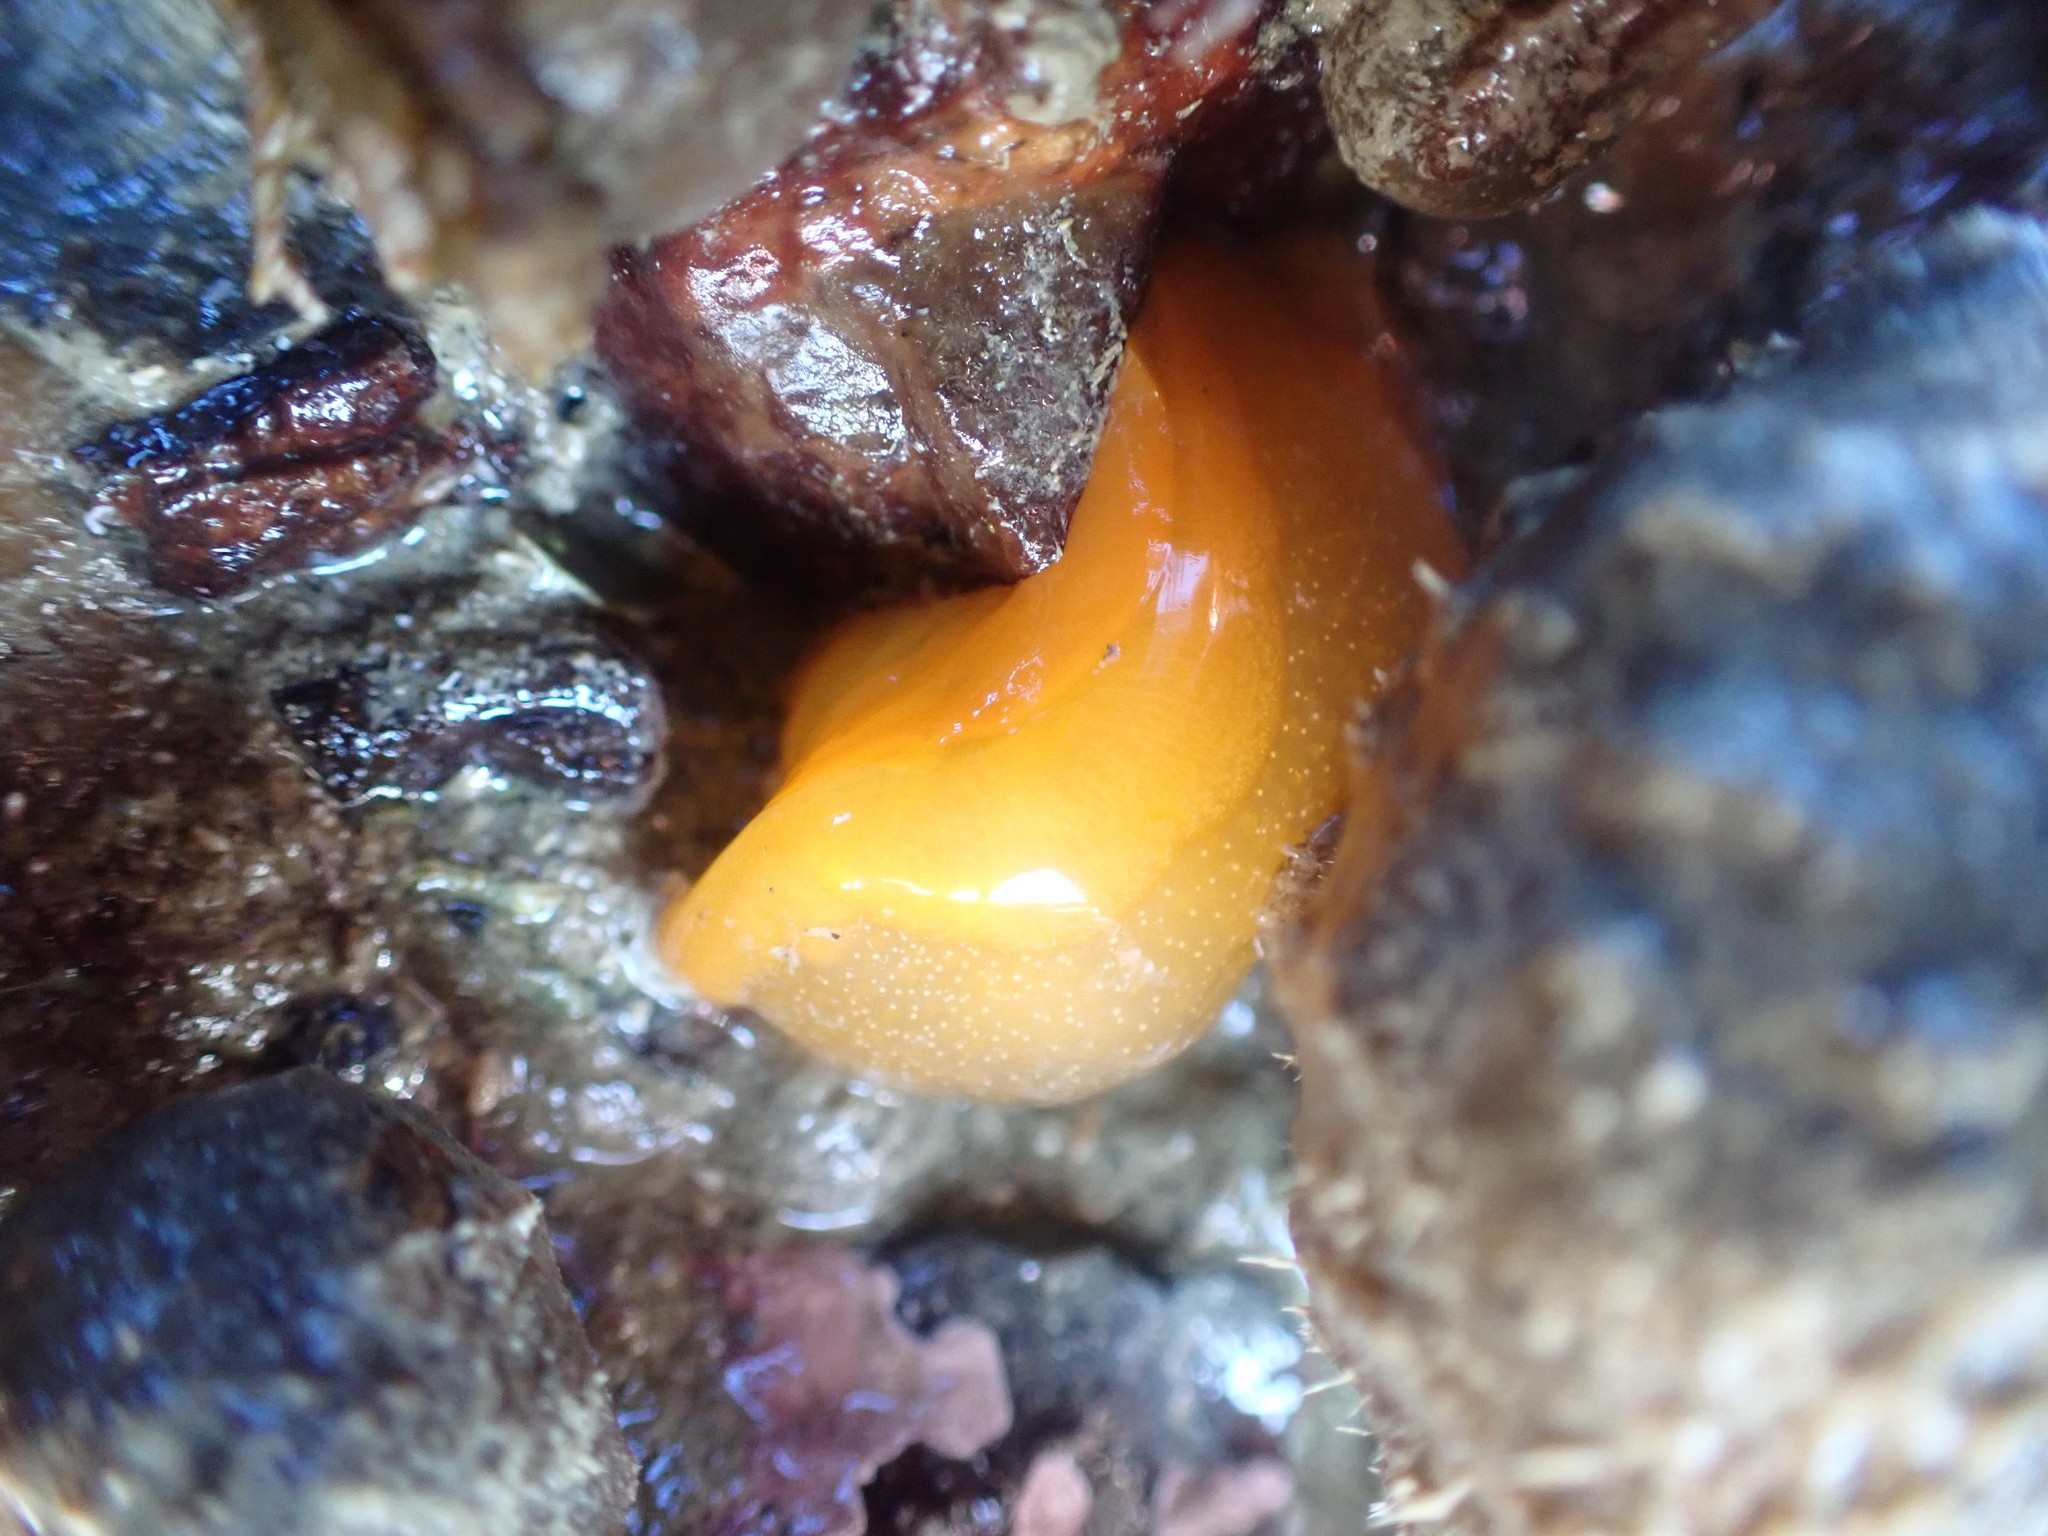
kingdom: Animalia
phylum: Mollusca
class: Gastropoda
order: Nudibranchia
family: Dendrodorididae
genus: Dendrodoris
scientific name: Dendrodoris citrina
